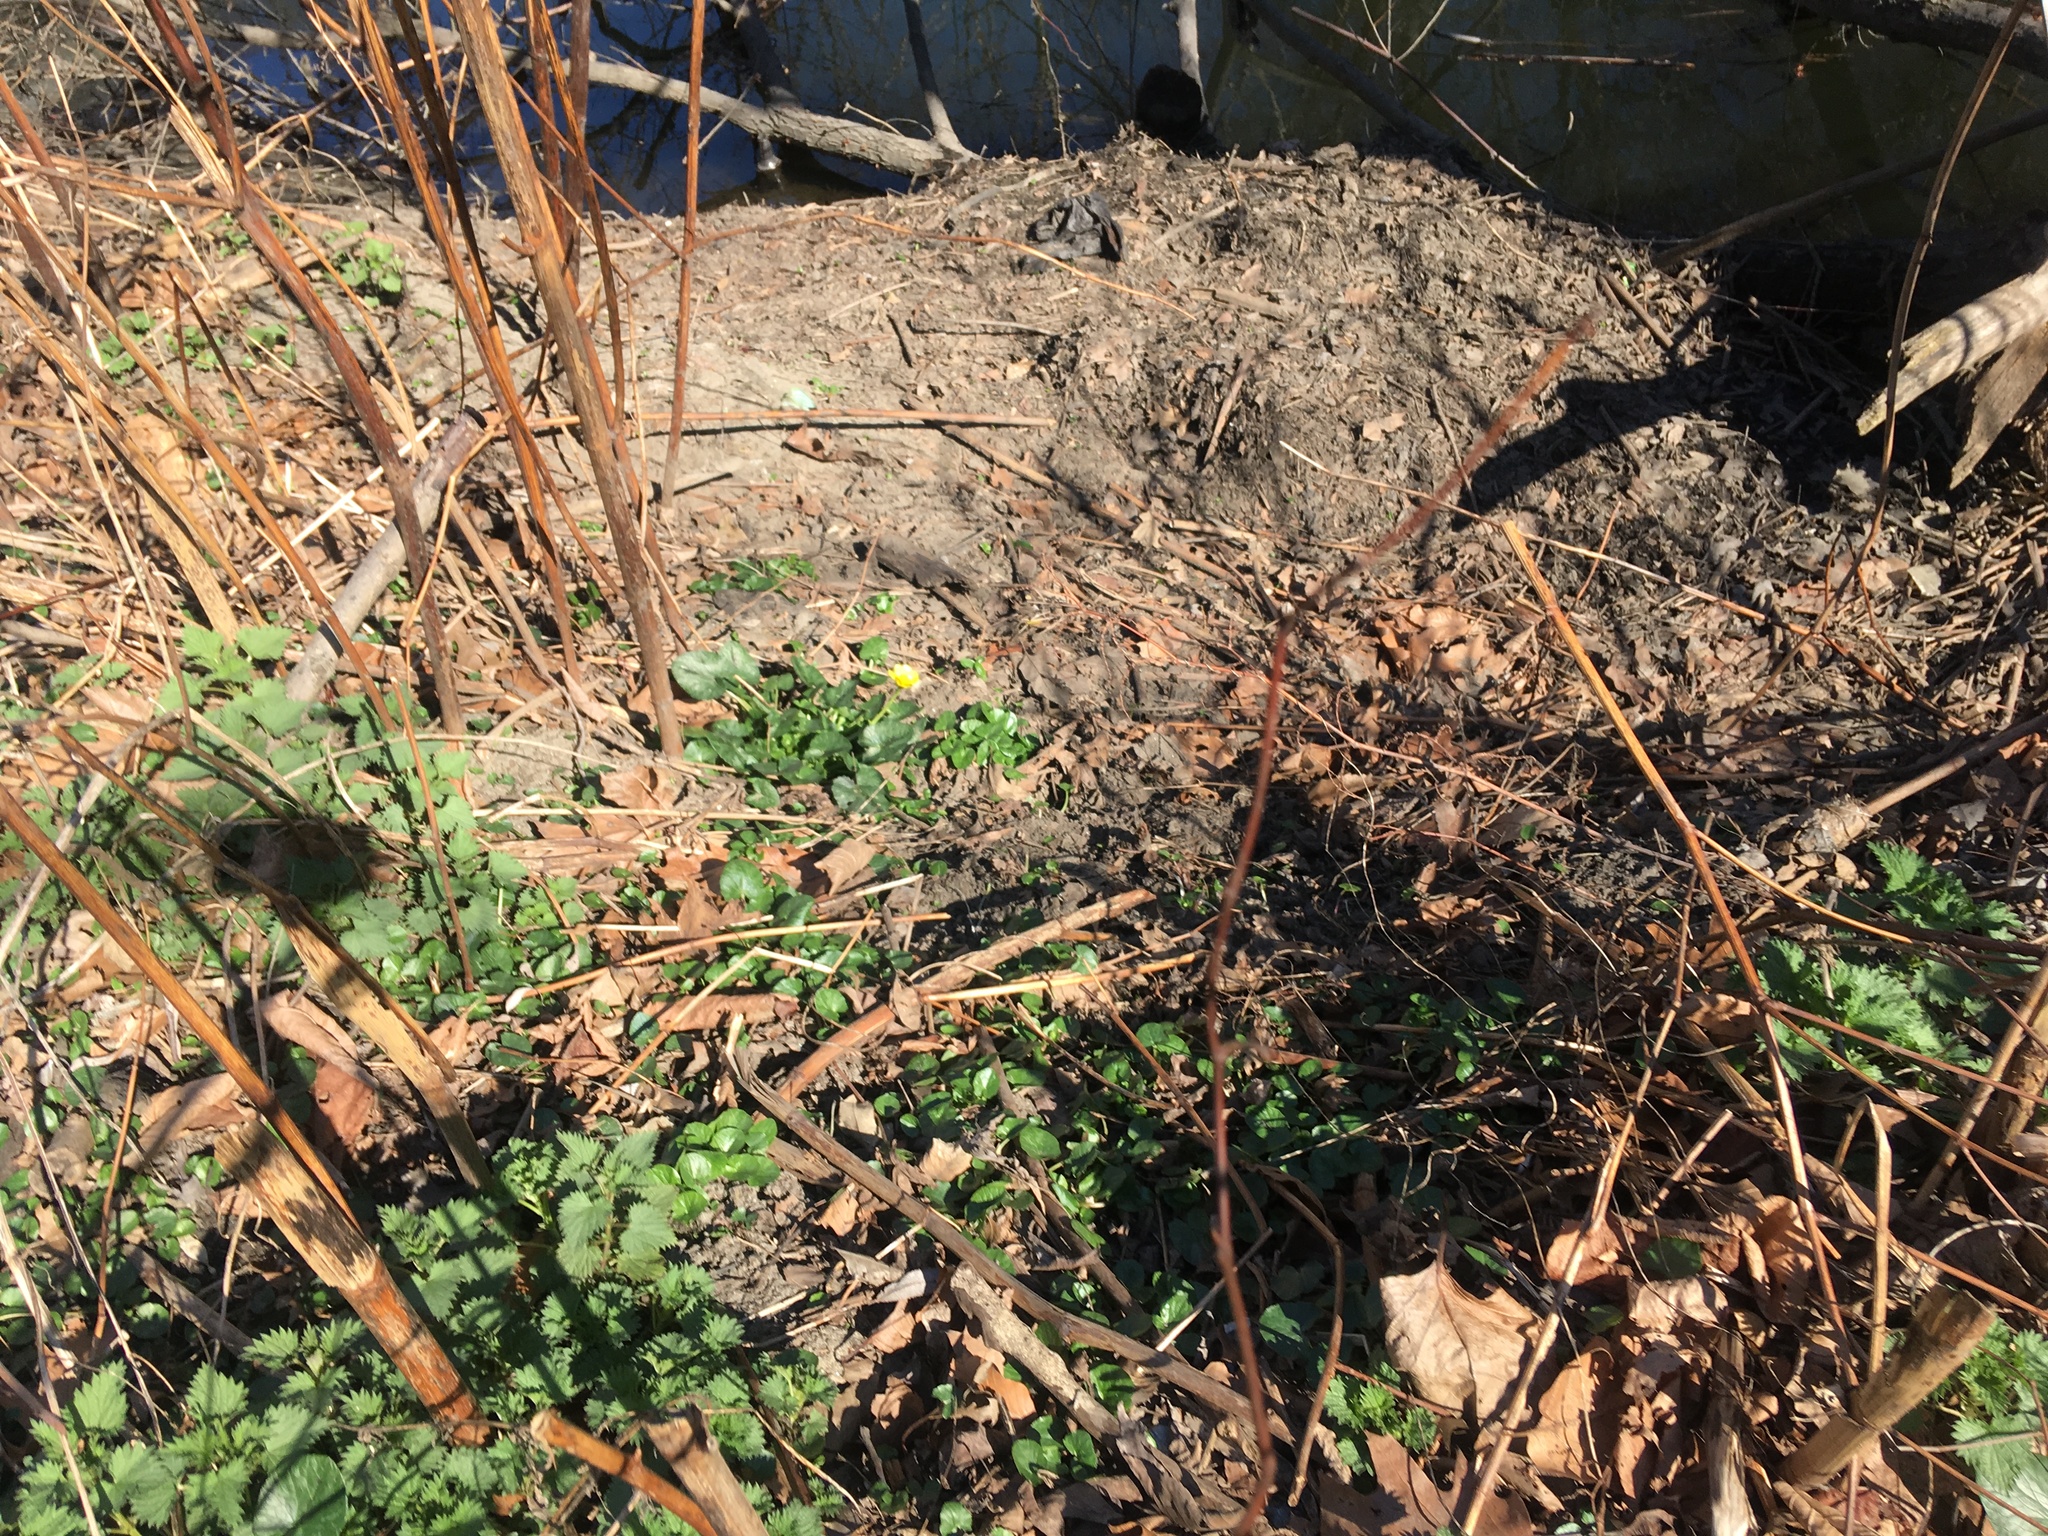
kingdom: Plantae
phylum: Tracheophyta
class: Magnoliopsida
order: Ranunculales
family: Ranunculaceae
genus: Ficaria
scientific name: Ficaria verna
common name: Lesser celandine
